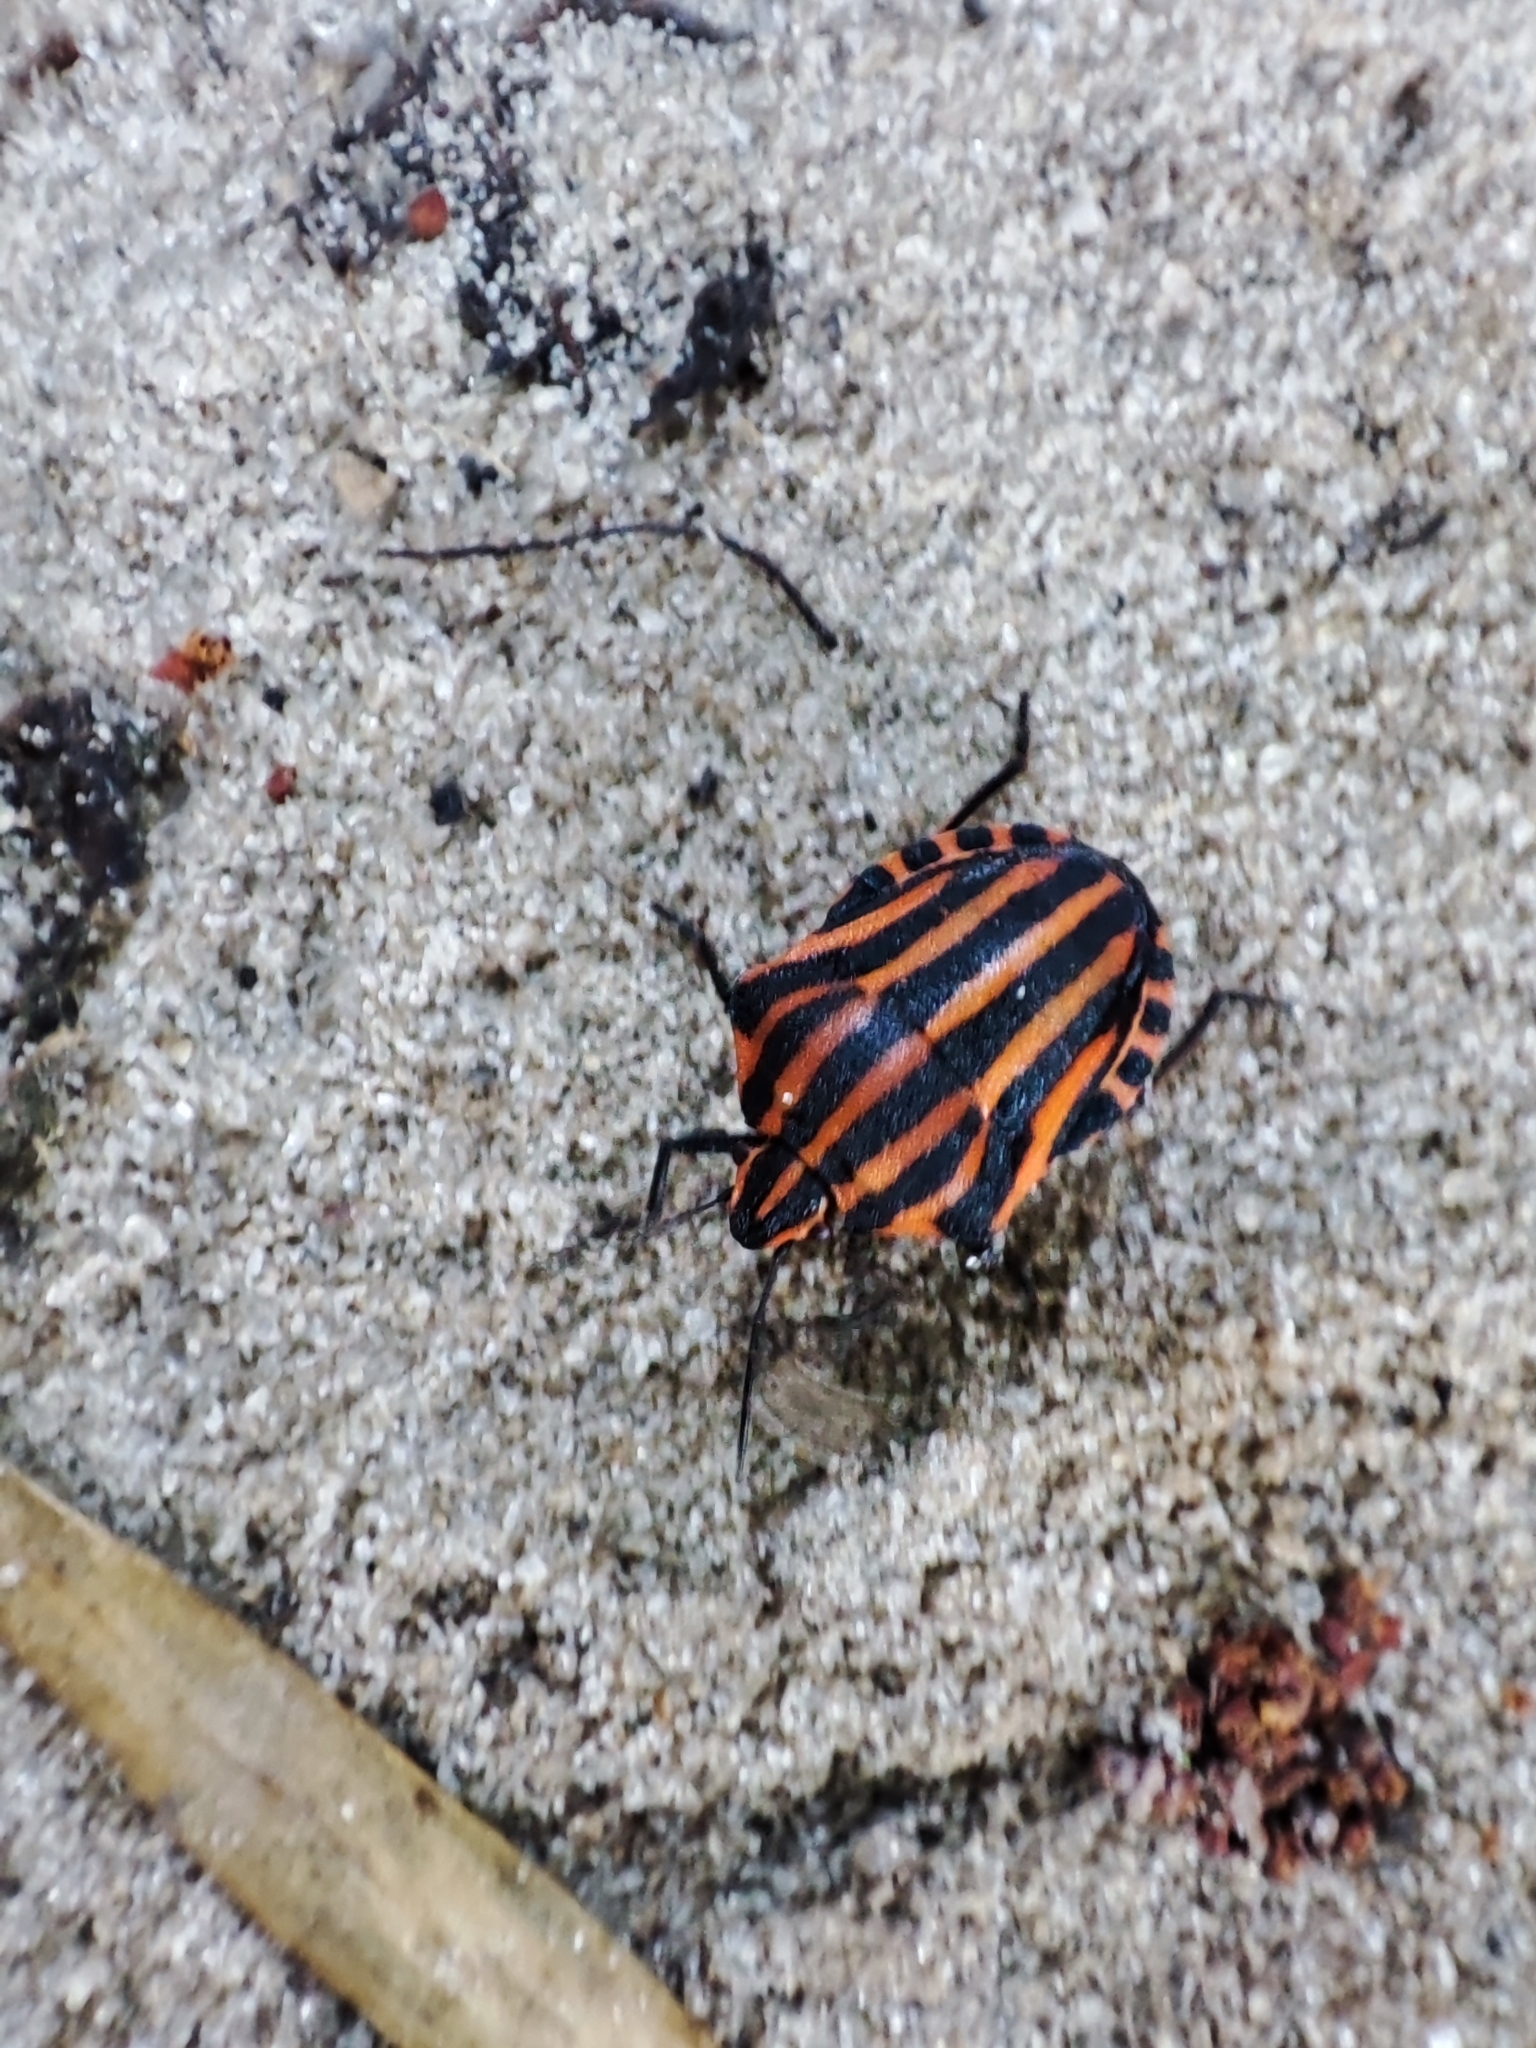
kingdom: Animalia
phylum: Arthropoda
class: Insecta
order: Hemiptera
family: Pentatomidae
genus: Graphosoma
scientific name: Graphosoma italicum
